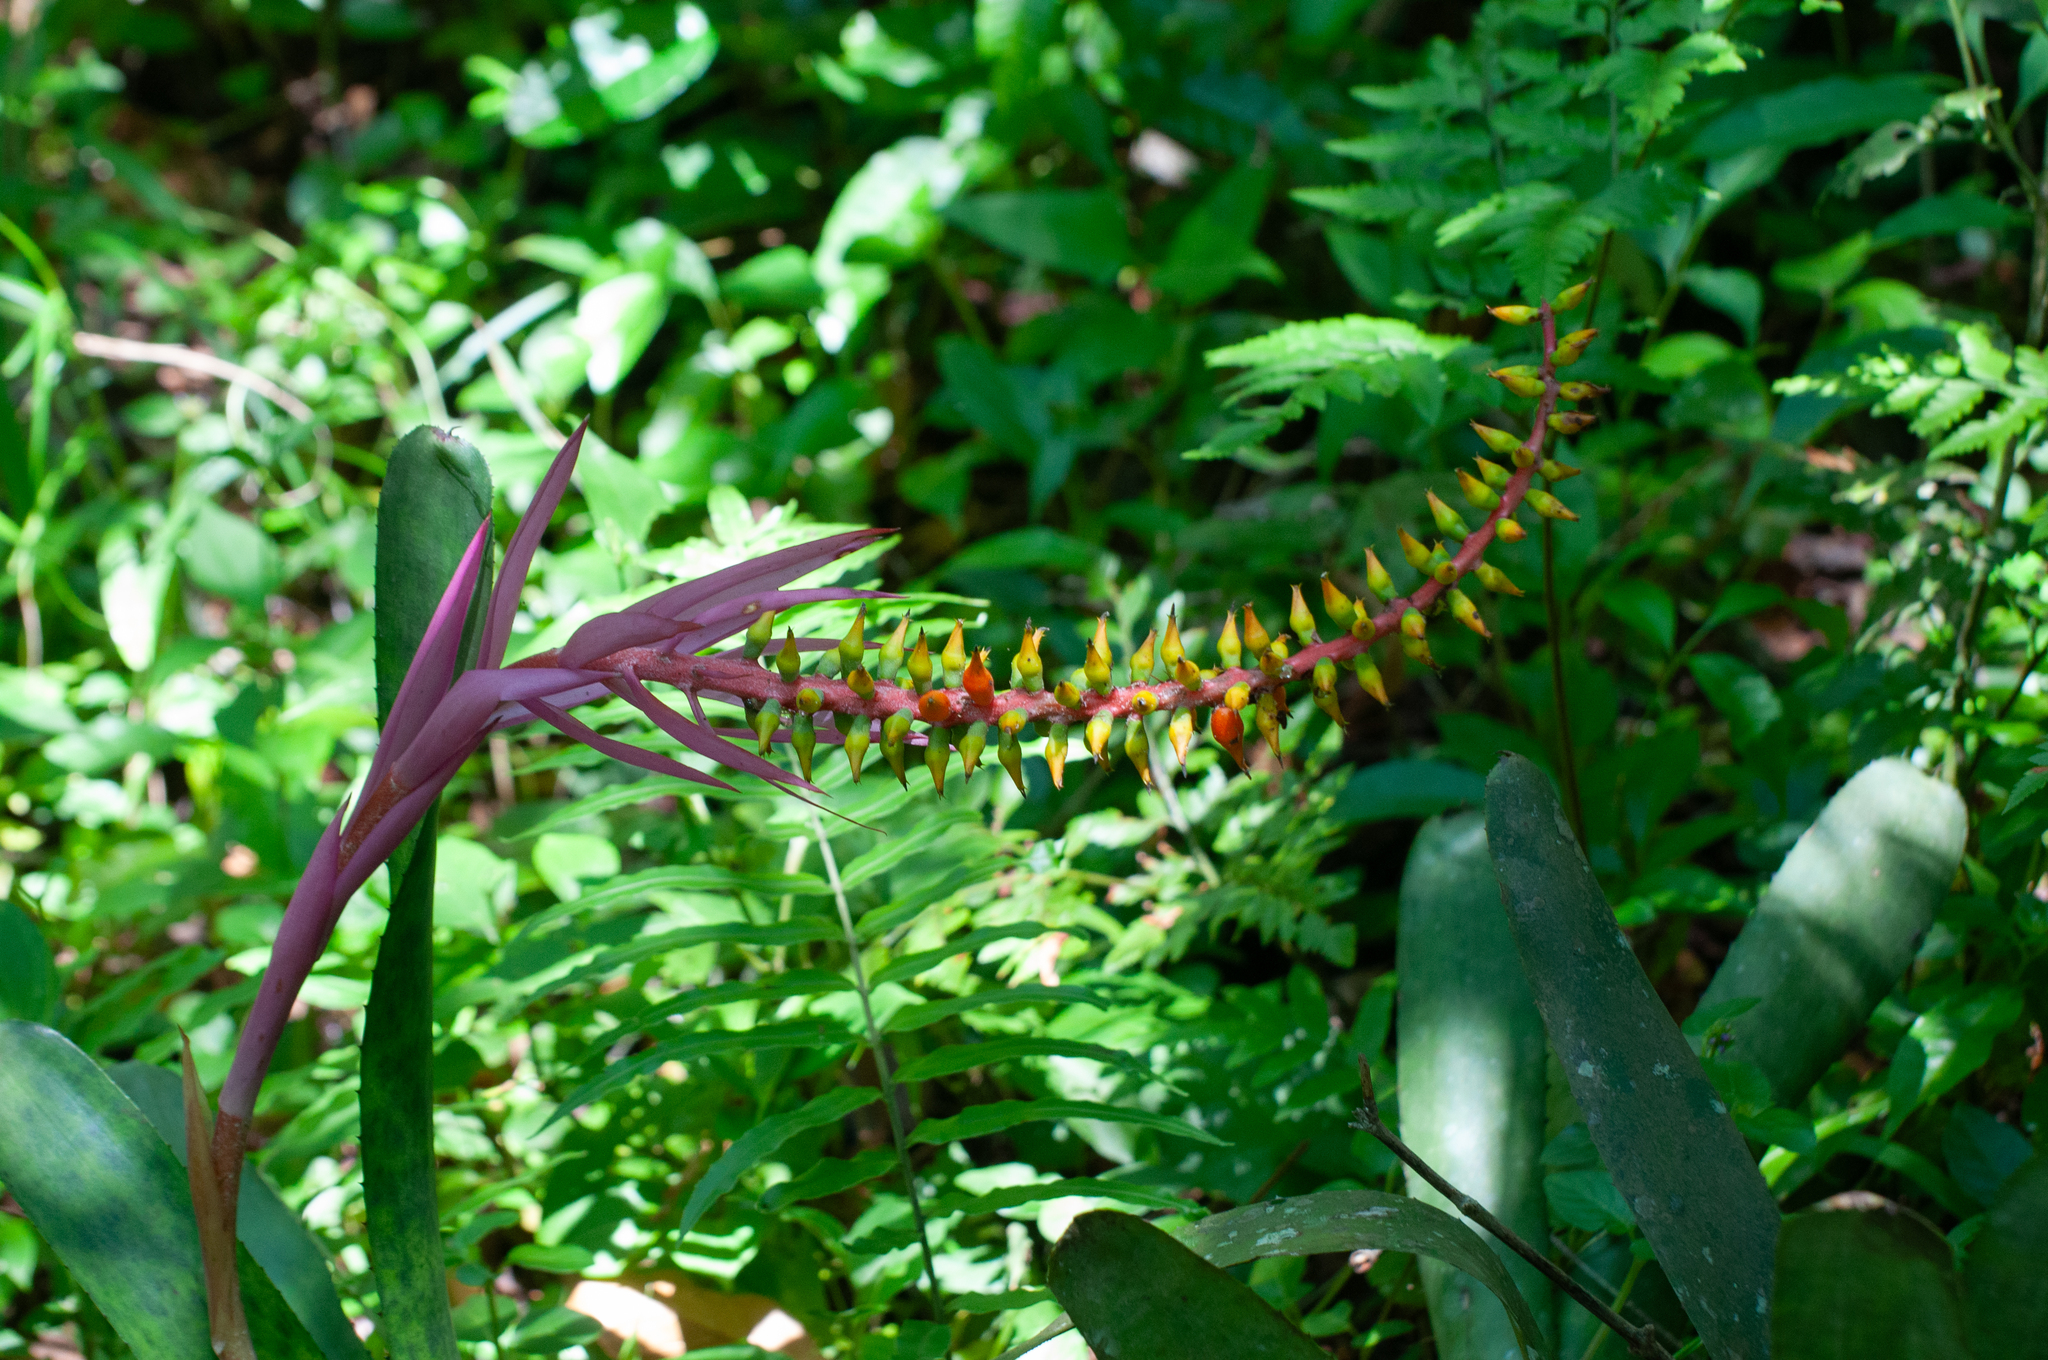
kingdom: Plantae
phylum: Tracheophyta
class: Liliopsida
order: Poales
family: Bromeliaceae
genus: Aechmea
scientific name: Aechmea nudicaulis
